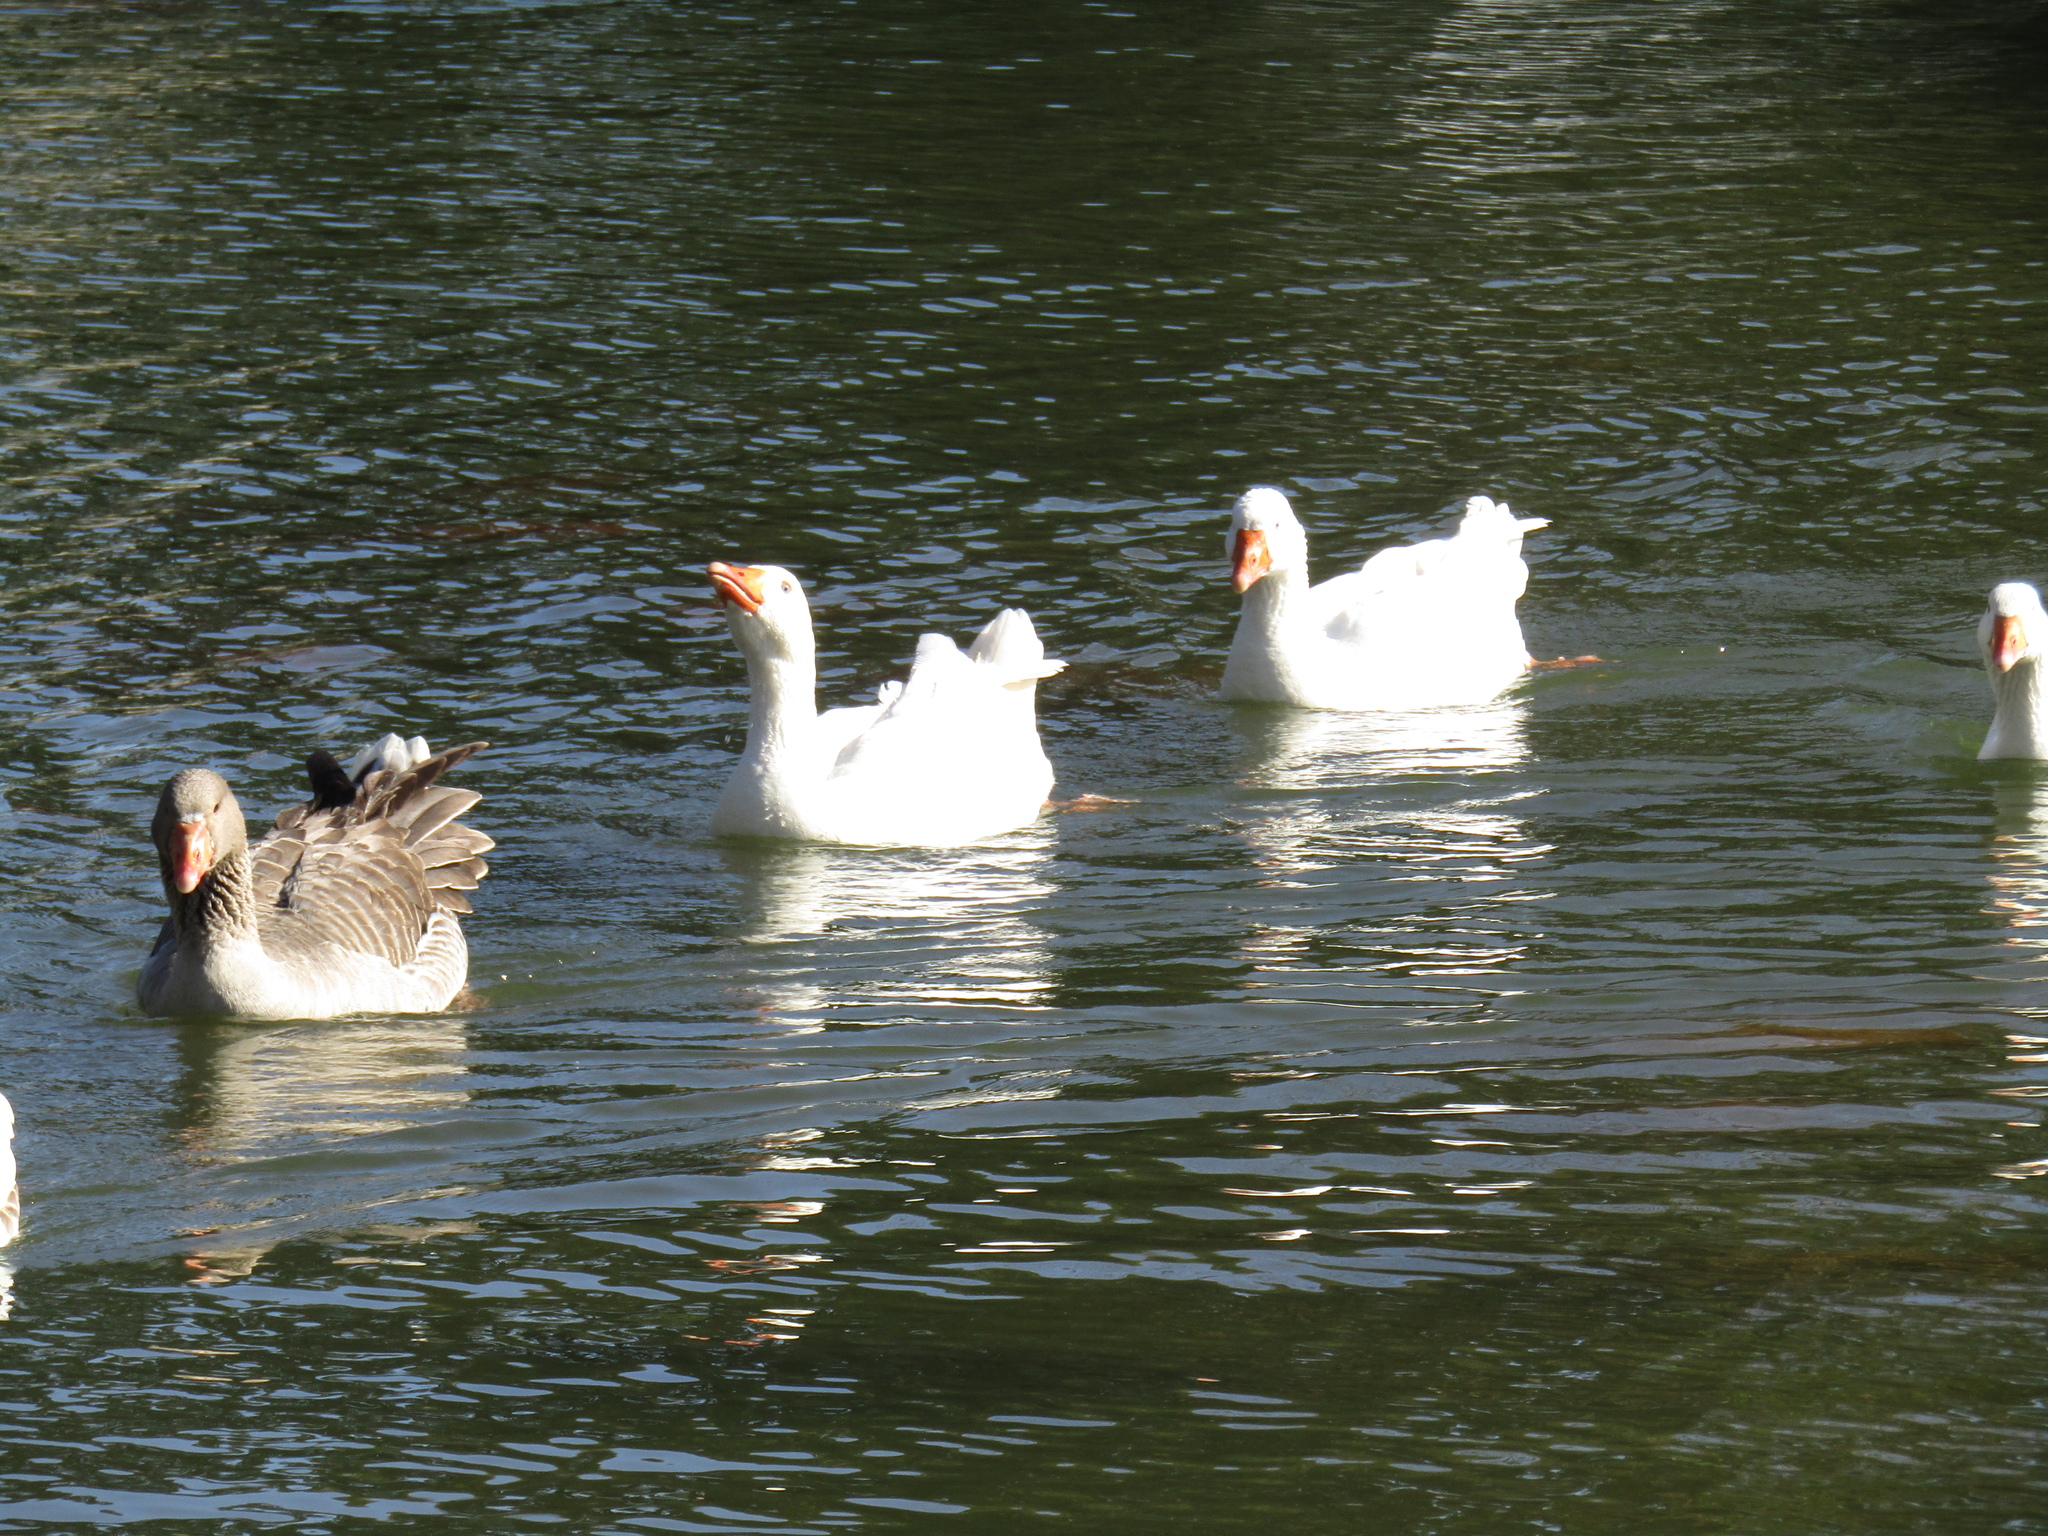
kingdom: Animalia
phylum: Chordata
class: Aves
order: Anseriformes
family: Anatidae
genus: Anser
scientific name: Anser anser
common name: Greylag goose
